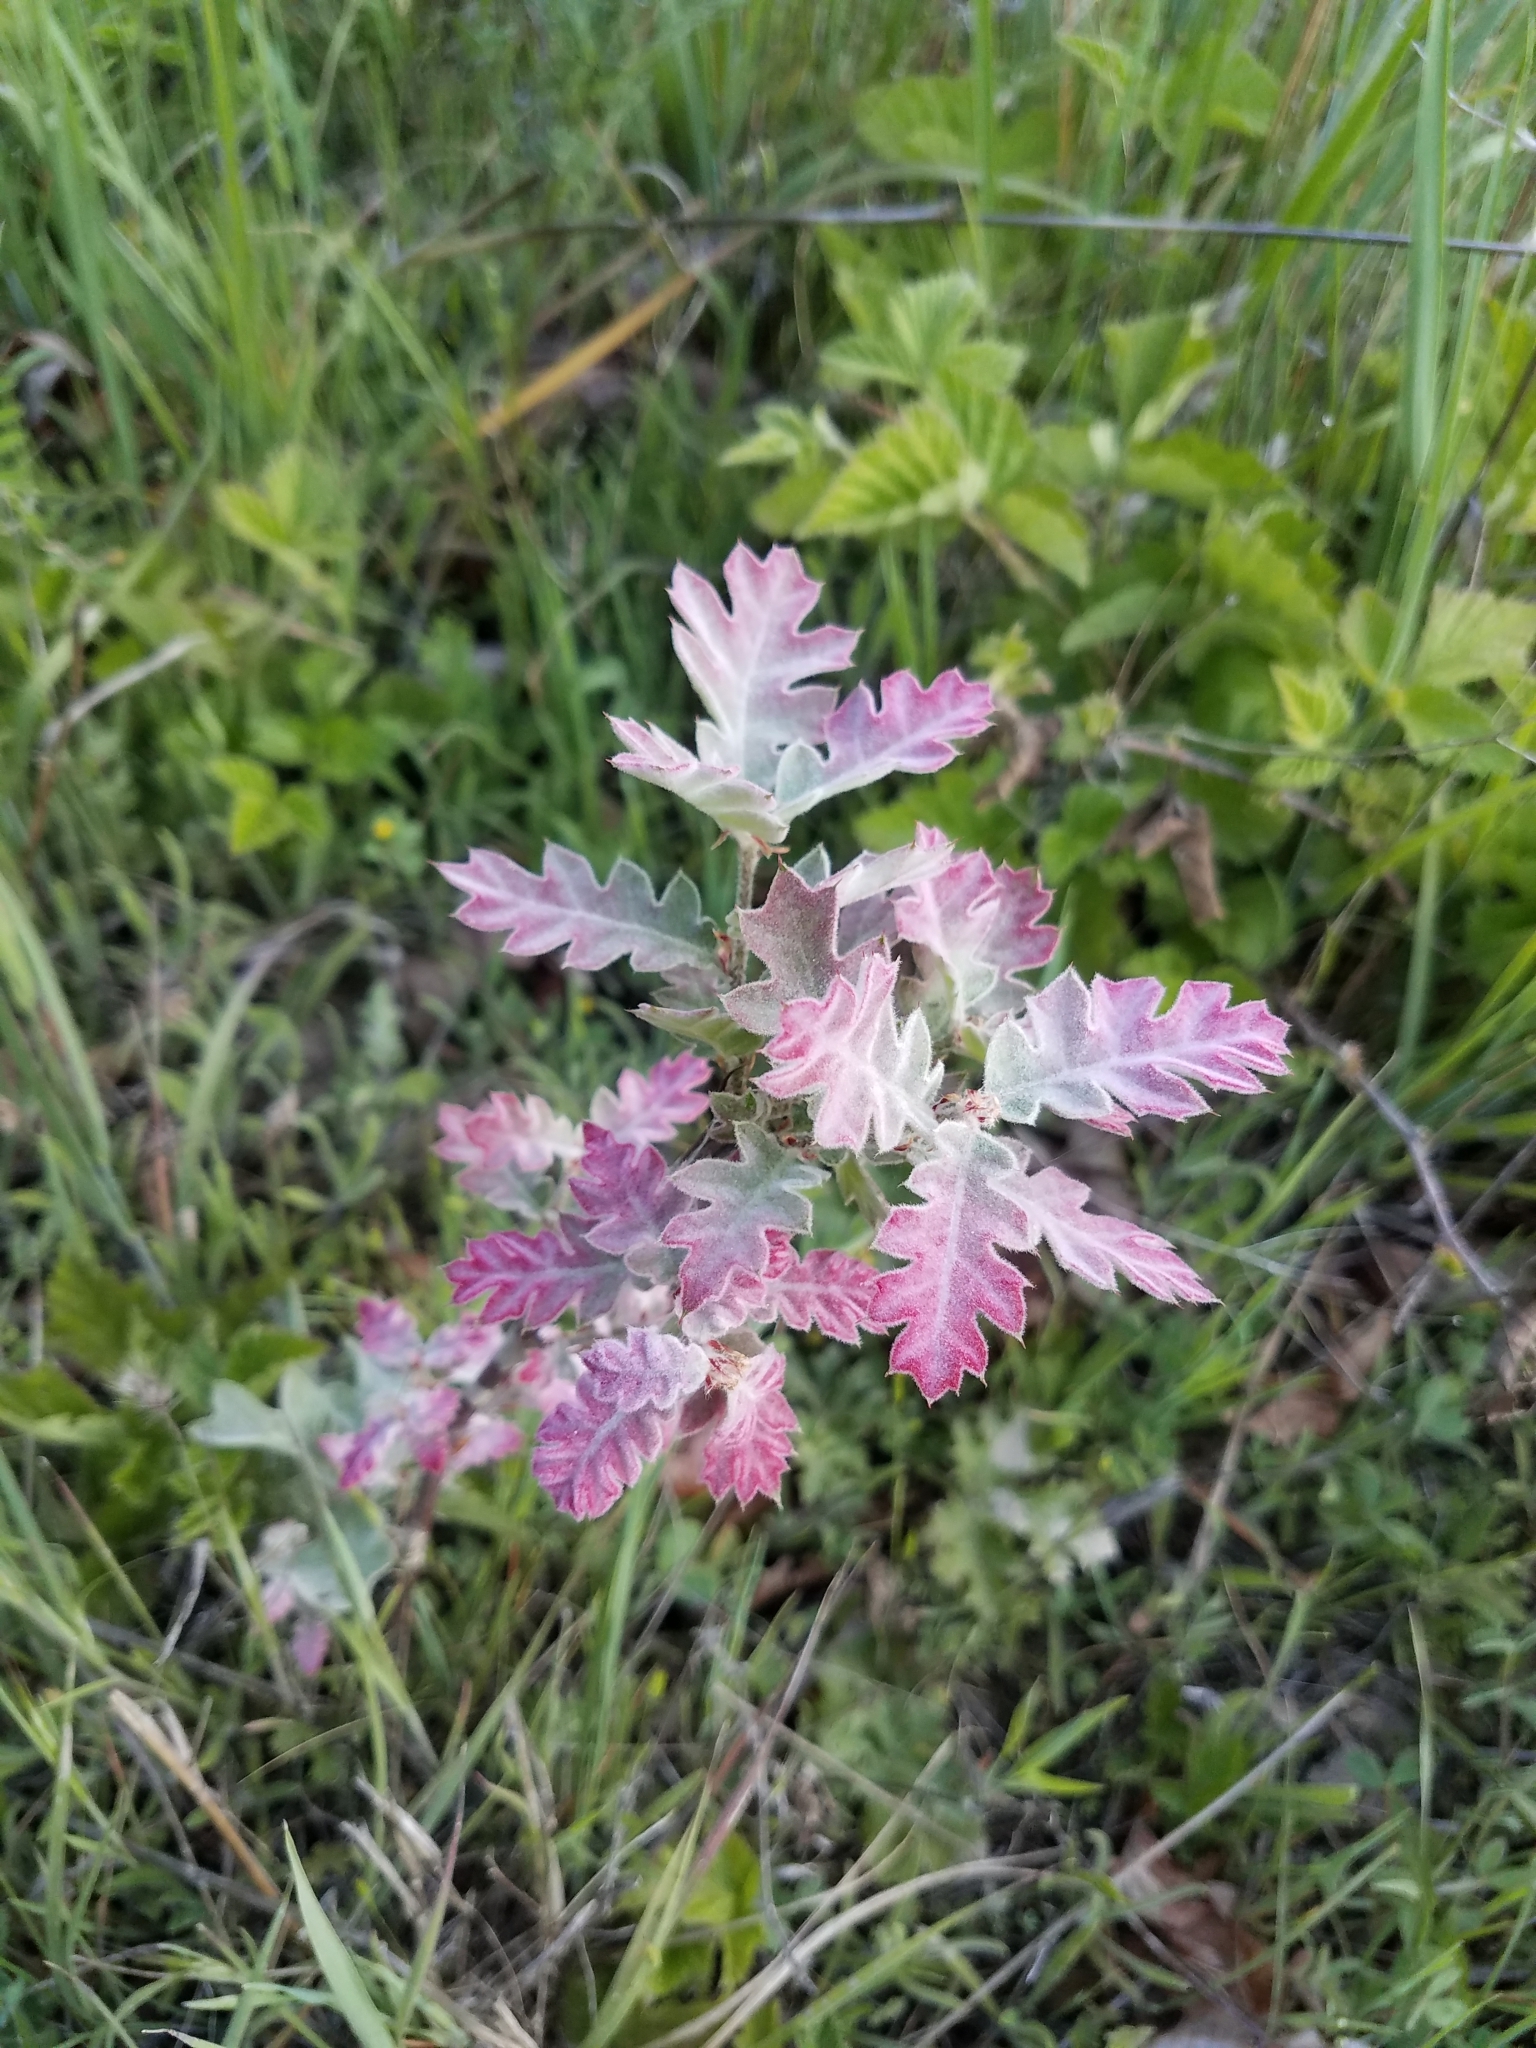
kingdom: Plantae
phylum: Tracheophyta
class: Magnoliopsida
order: Fagales
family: Fagaceae
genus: Quercus
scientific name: Quercus kelloggii
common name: California black oak
